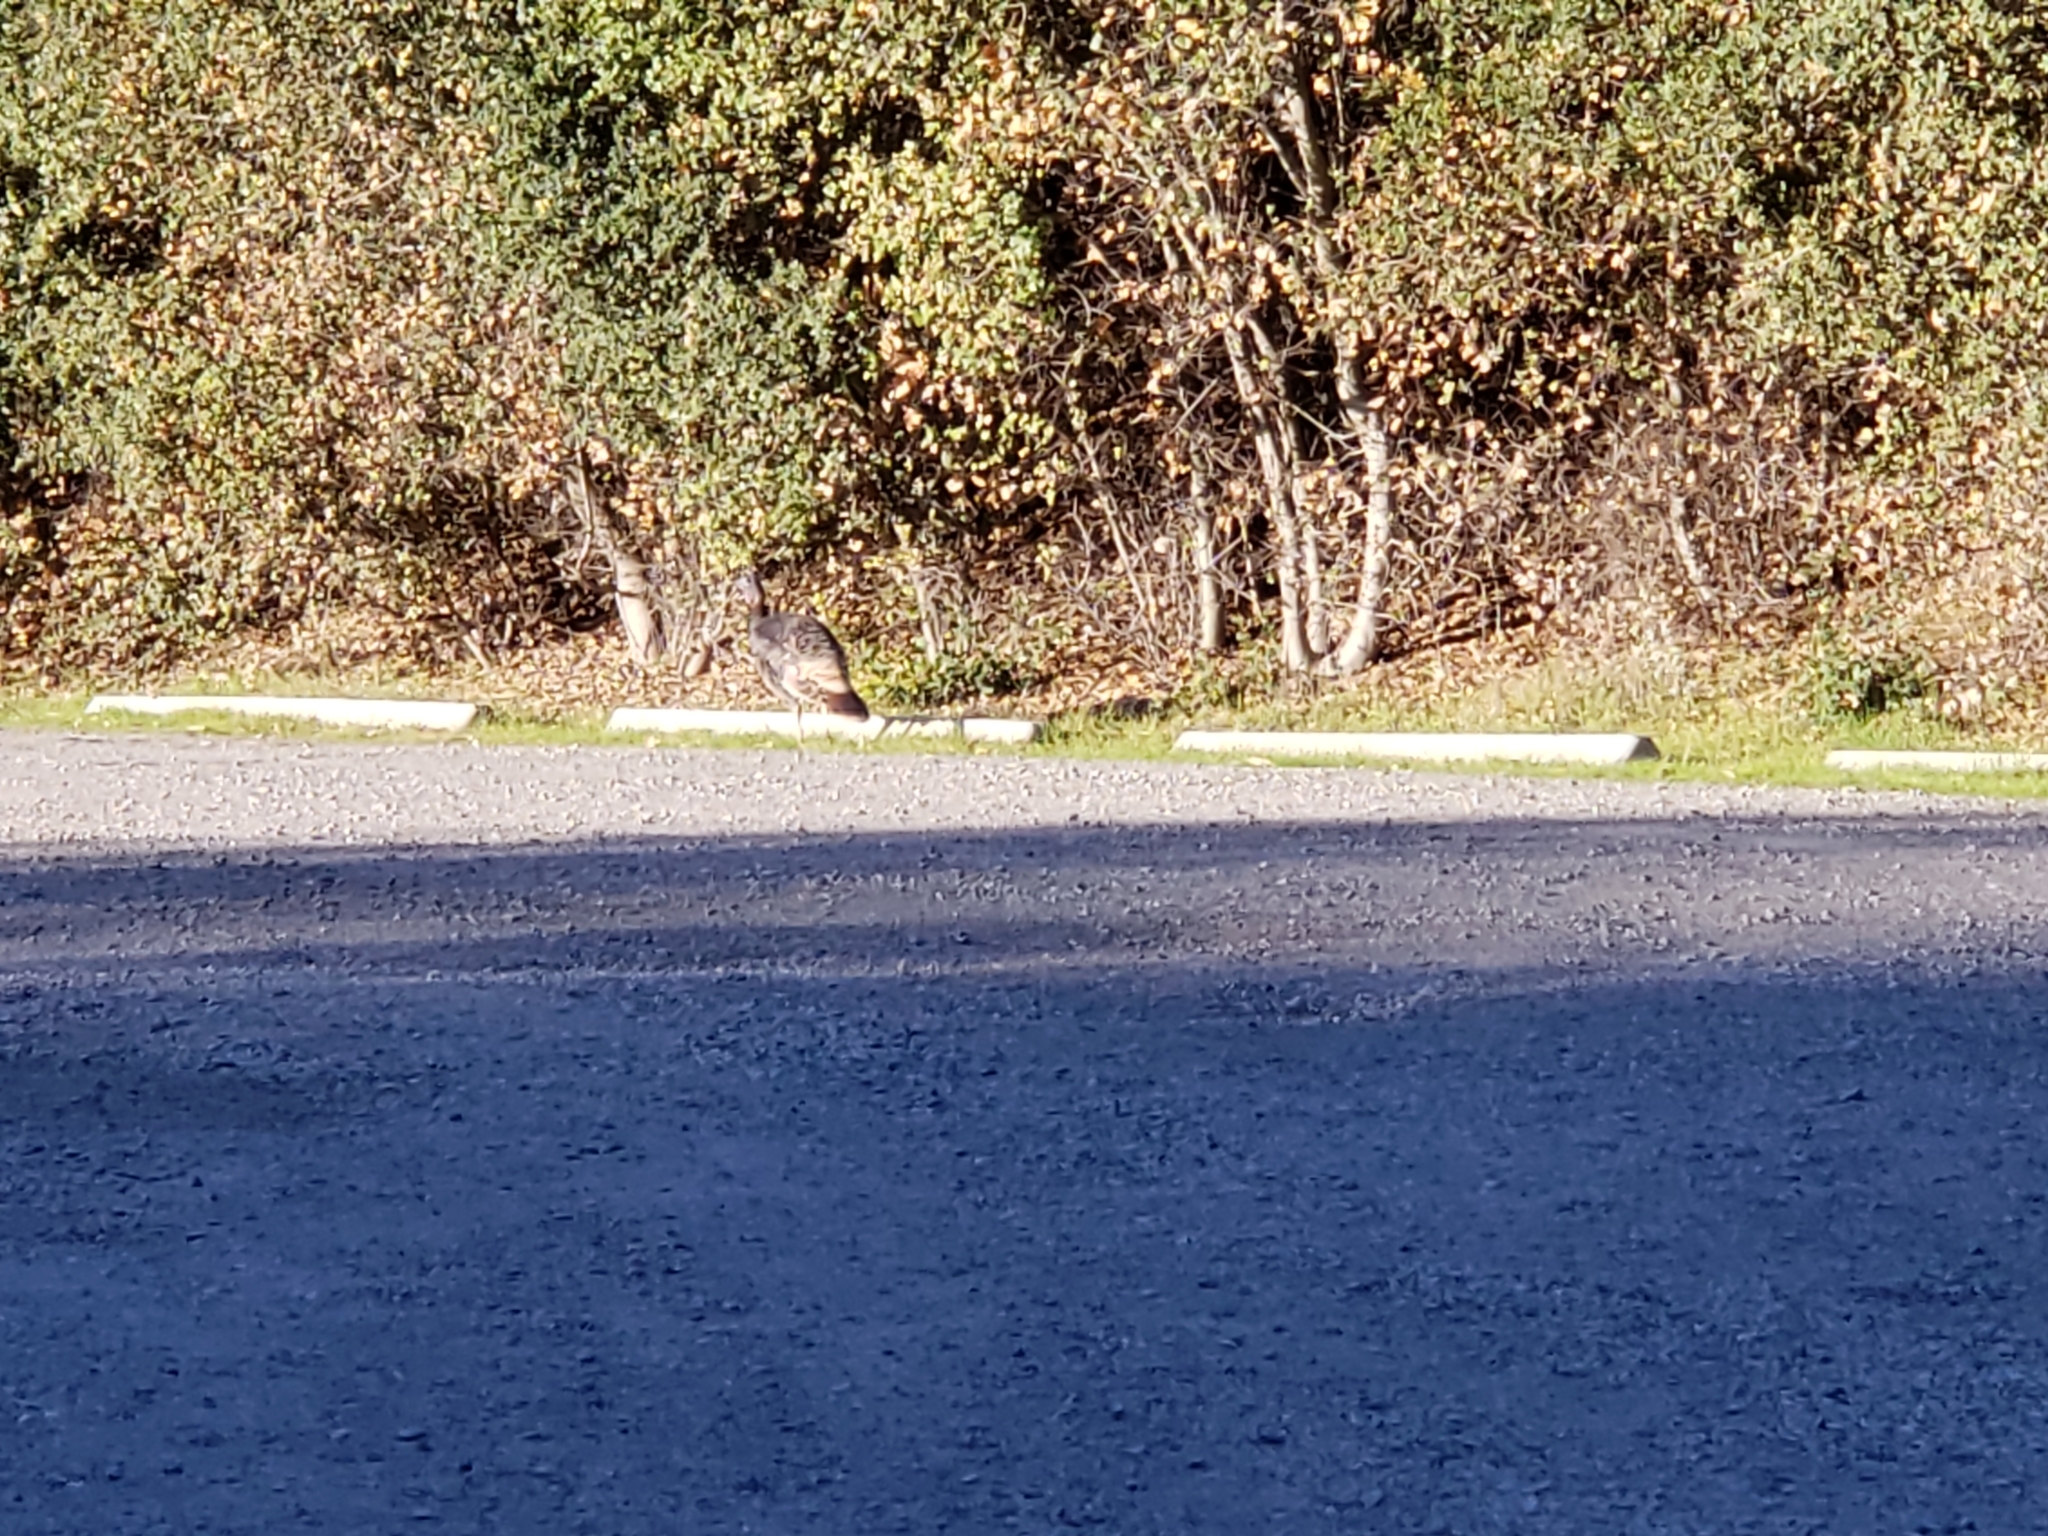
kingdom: Animalia
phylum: Chordata
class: Aves
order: Galliformes
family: Phasianidae
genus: Meleagris
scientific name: Meleagris gallopavo
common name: Wild turkey
